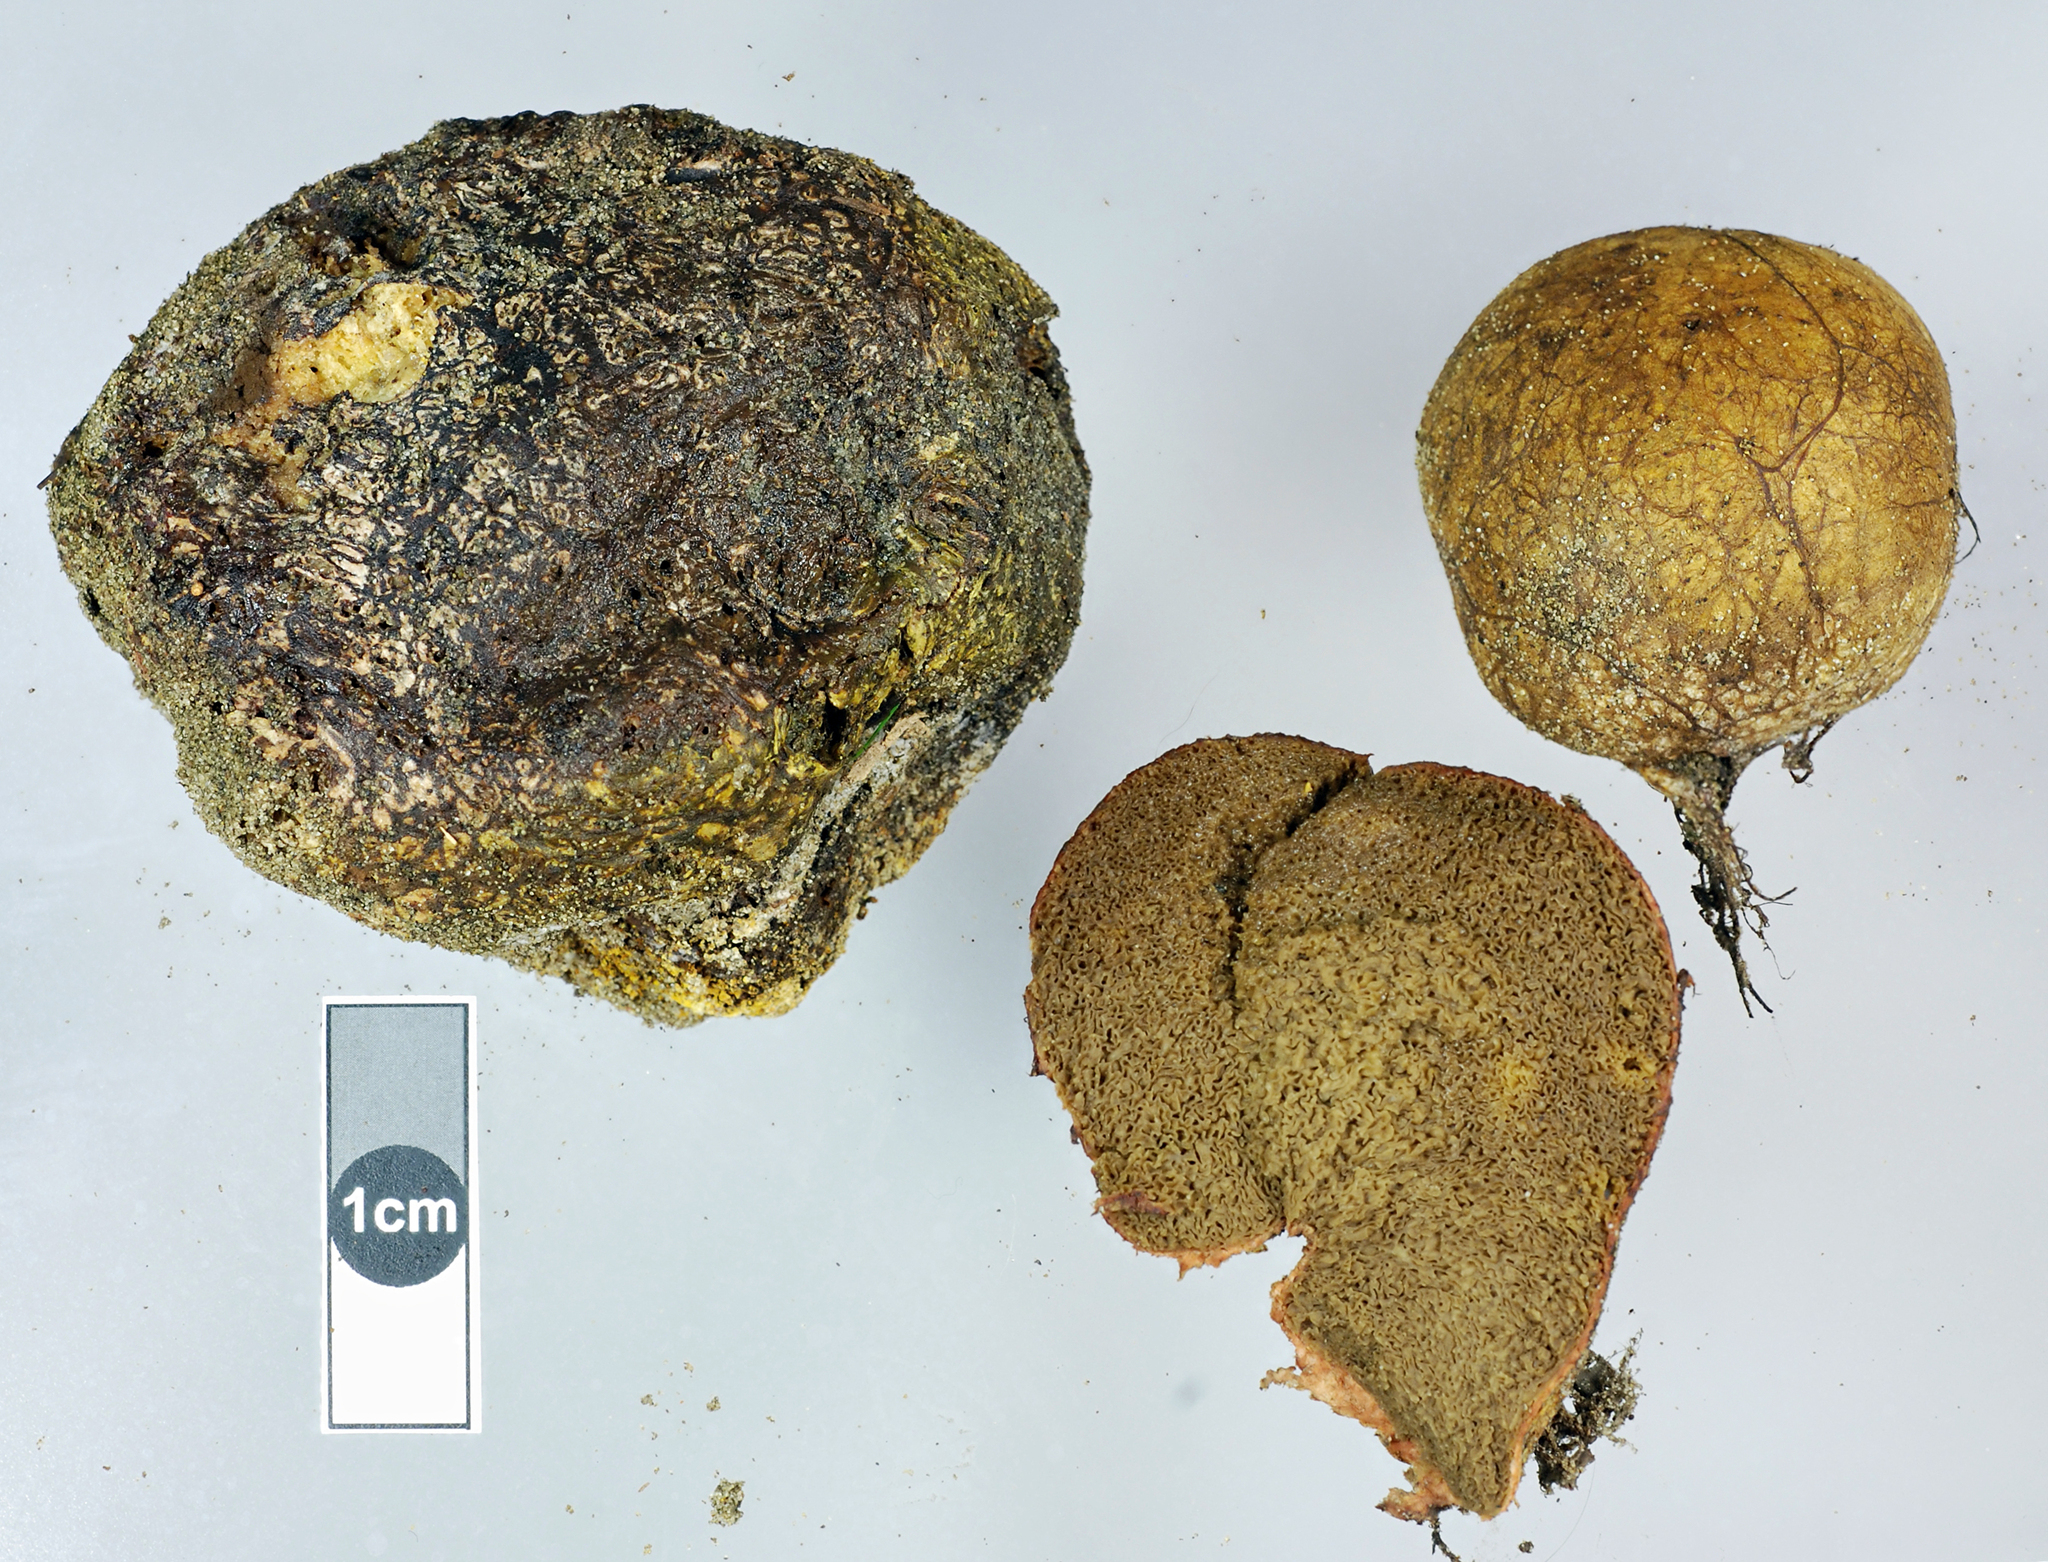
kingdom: Fungi
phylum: Basidiomycota
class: Agaricomycetes
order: Boletales
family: Rhizopogonaceae
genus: Rhizopogon
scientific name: Rhizopogon pseudoroseolus
